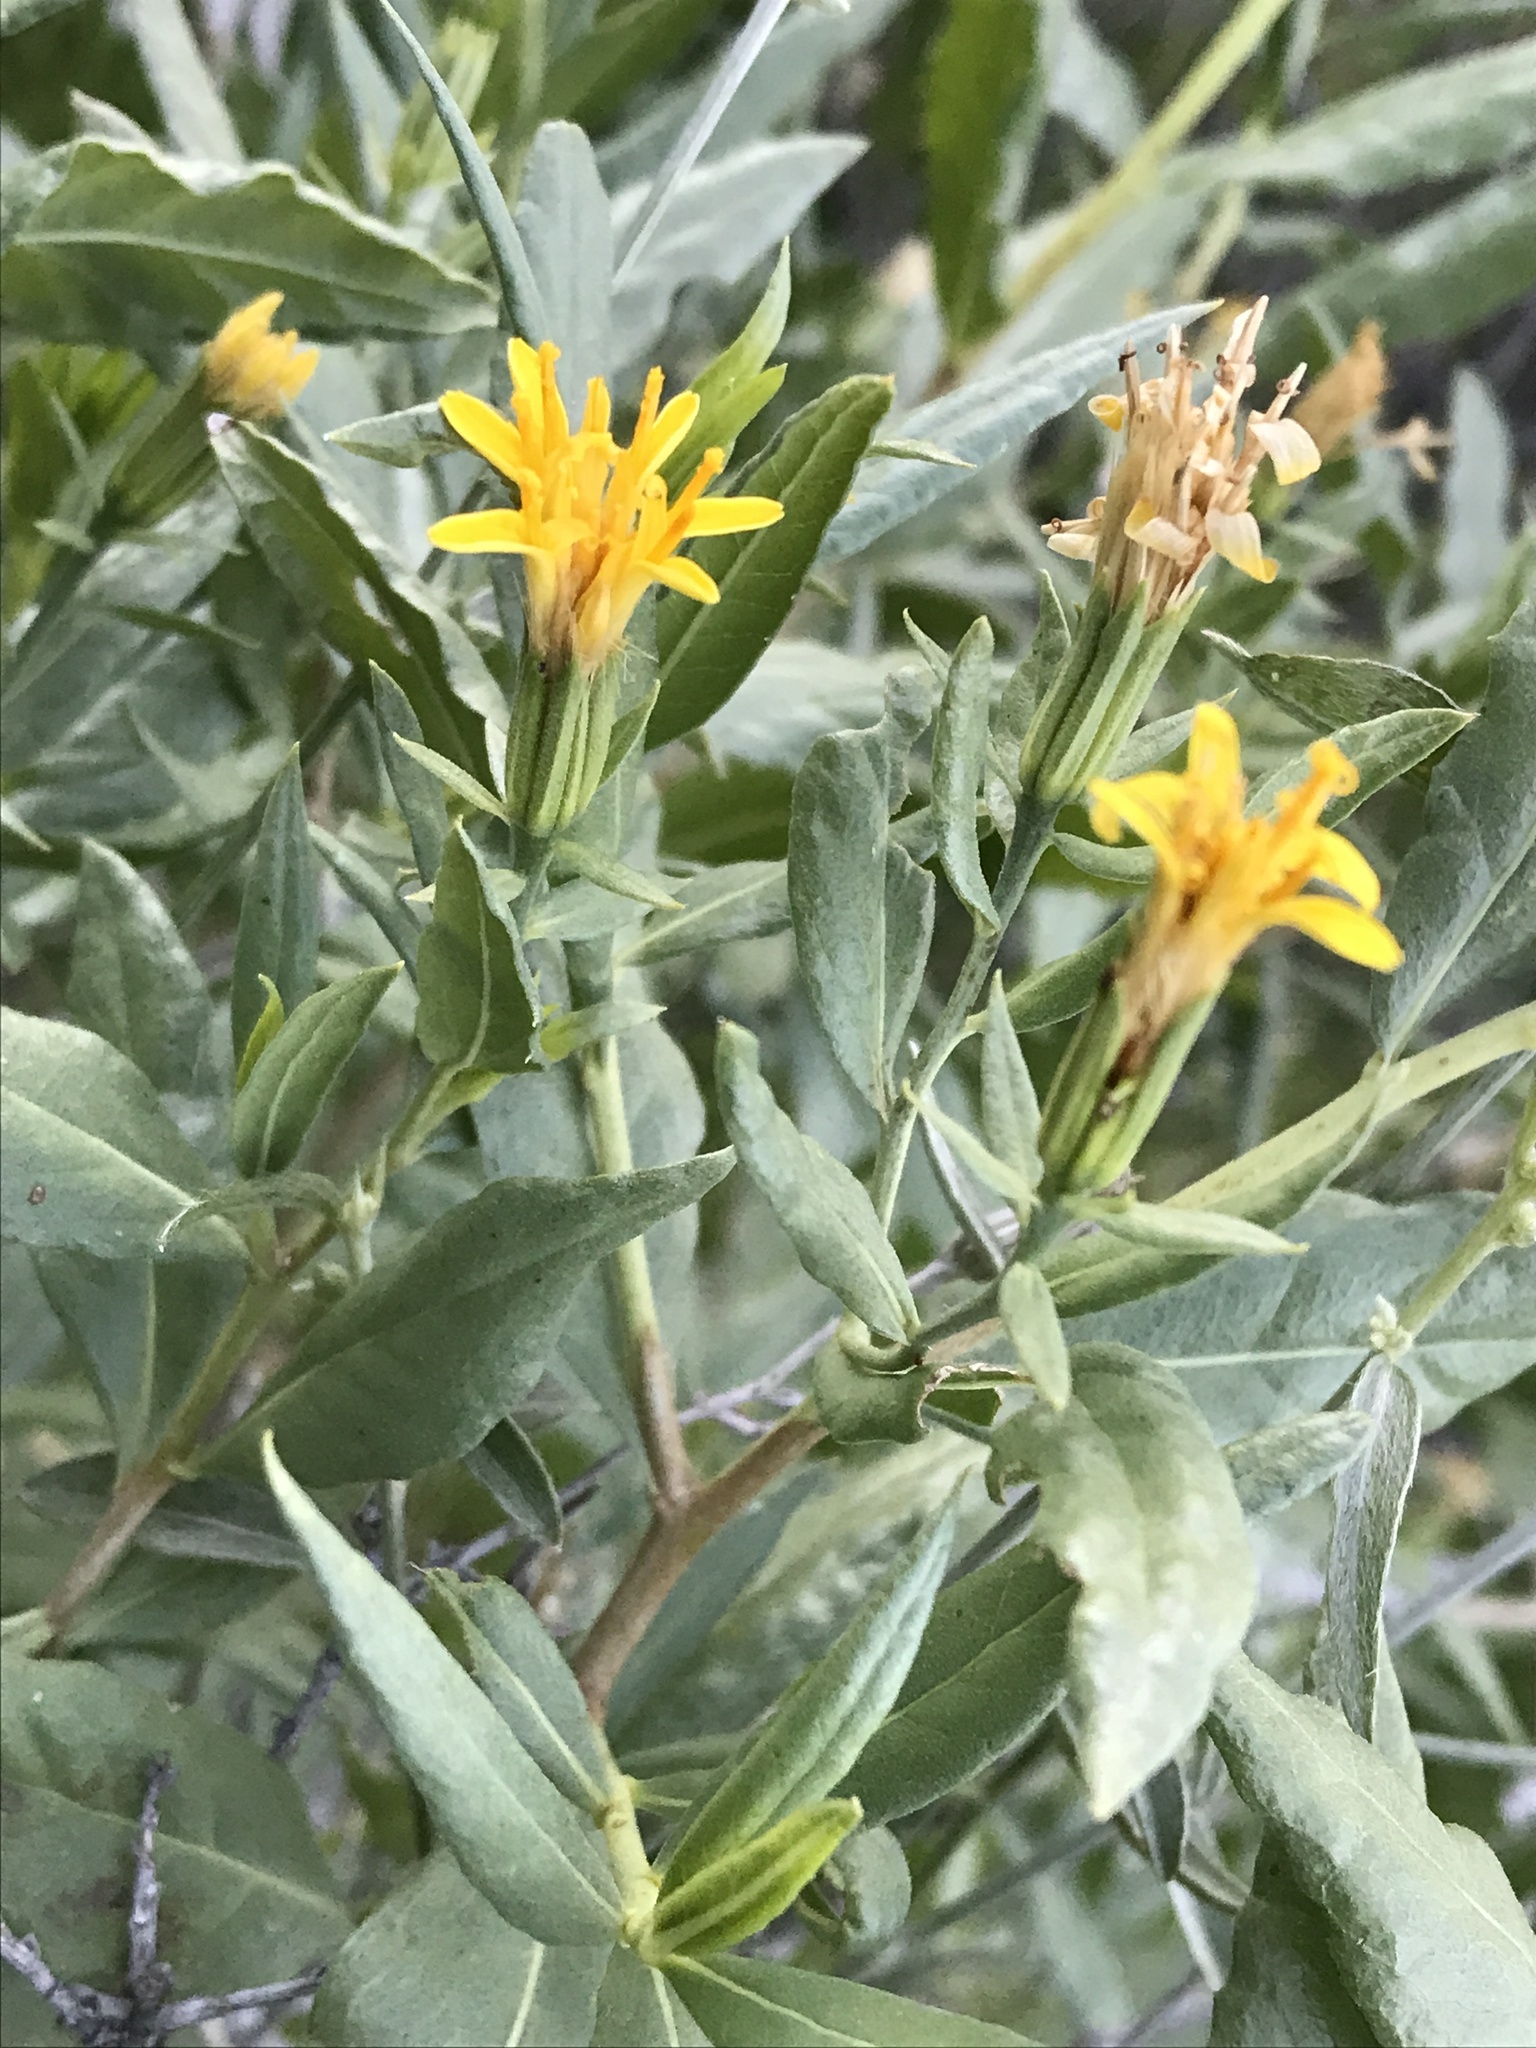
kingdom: Plantae
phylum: Tracheophyta
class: Magnoliopsida
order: Asterales
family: Asteraceae
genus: Trixis
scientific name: Trixis californica
